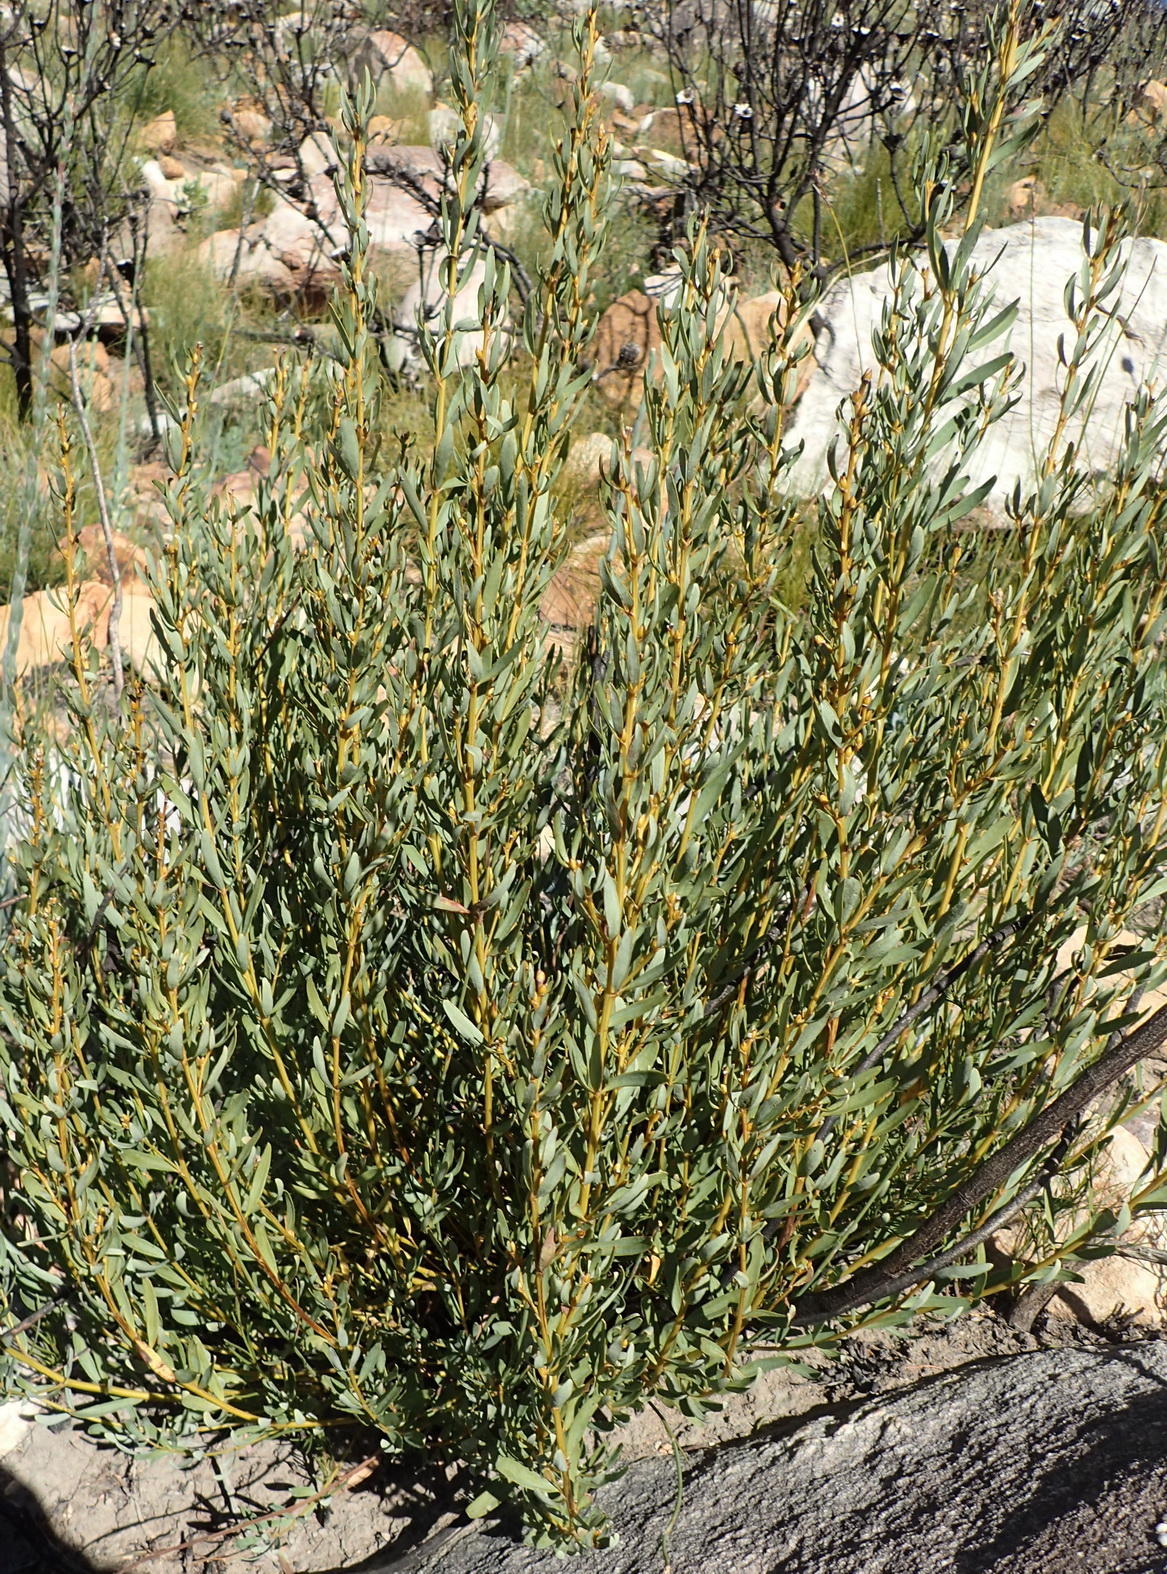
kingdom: Plantae
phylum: Tracheophyta
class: Magnoliopsida
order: Fabales
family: Fabaceae
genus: Cyclopia
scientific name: Cyclopia intermedia
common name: Mountain tea
